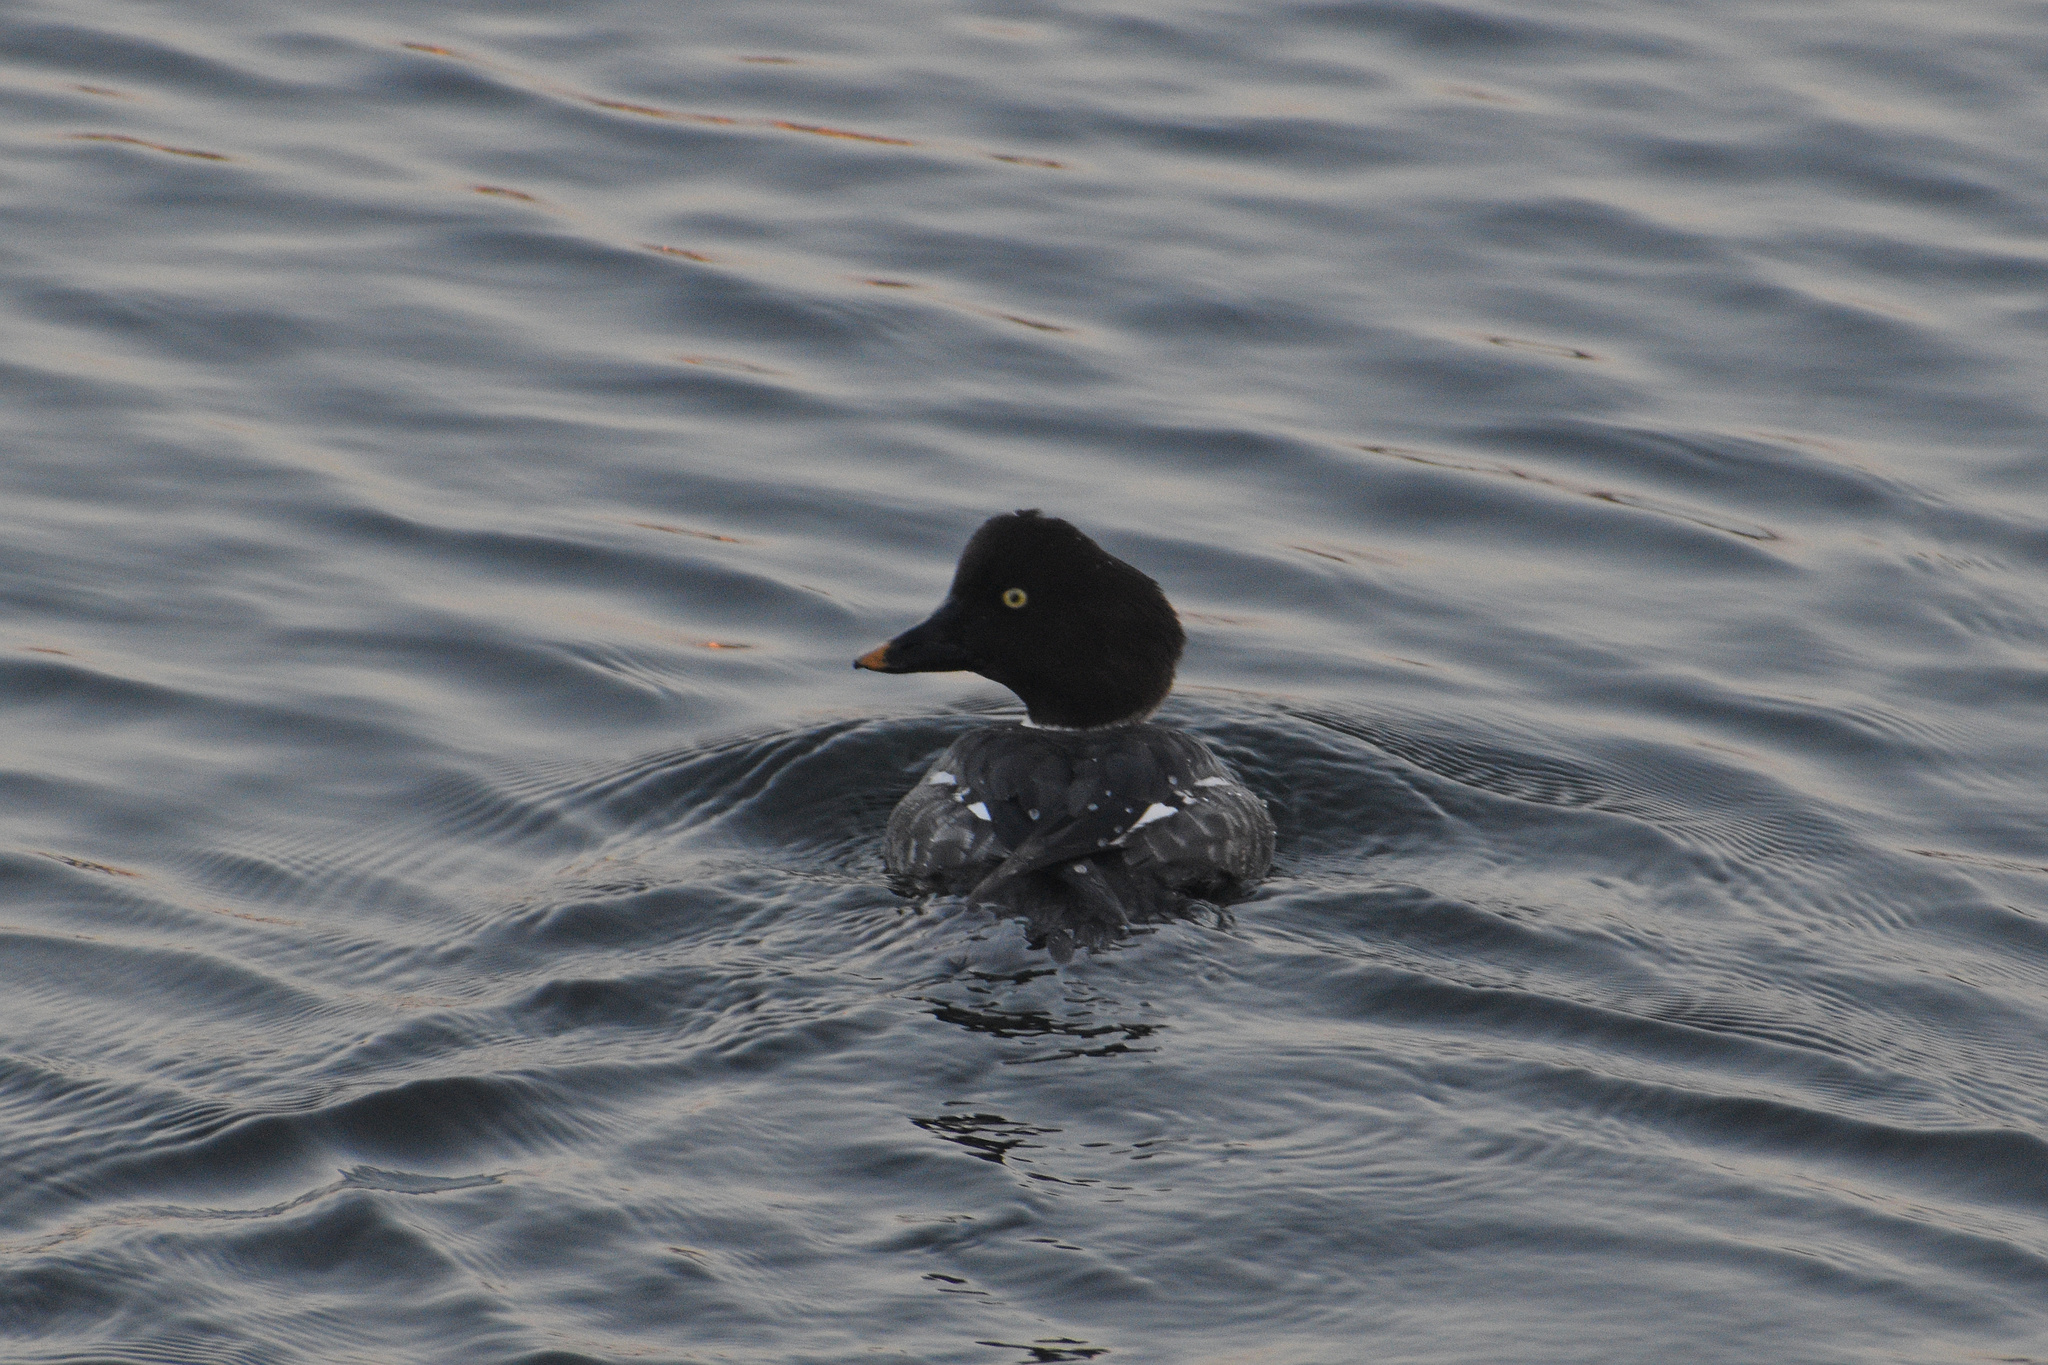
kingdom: Animalia
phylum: Chordata
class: Aves
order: Anseriformes
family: Anatidae
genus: Bucephala
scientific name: Bucephala clangula
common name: Common goldeneye
